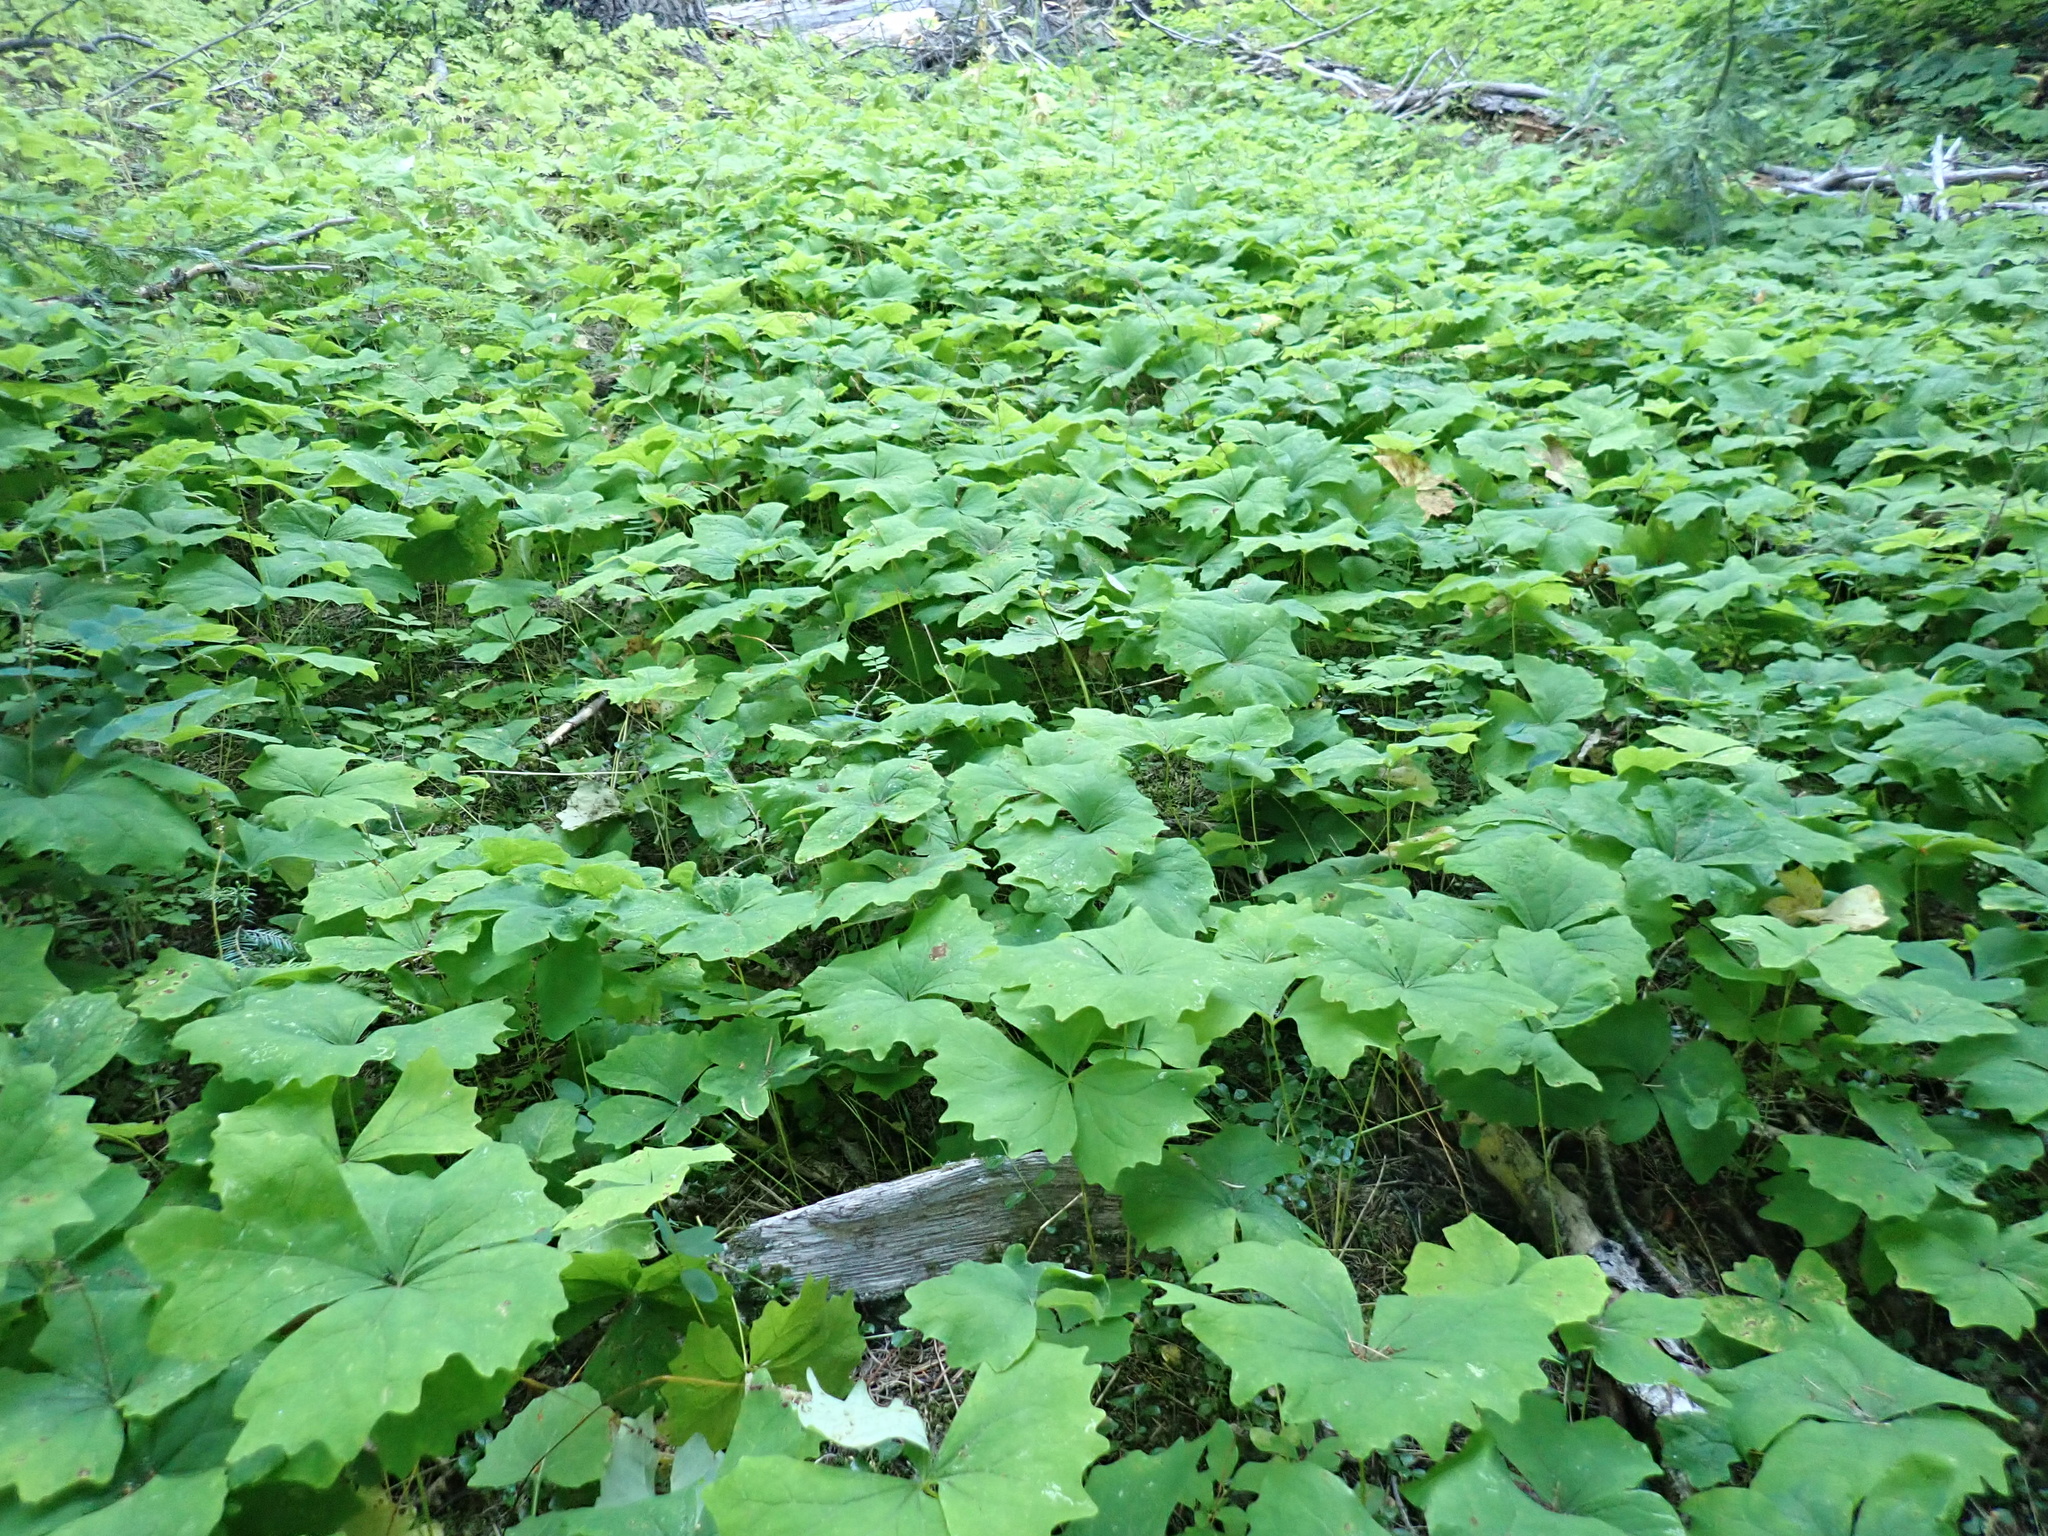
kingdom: Plantae
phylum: Tracheophyta
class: Magnoliopsida
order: Ranunculales
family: Berberidaceae
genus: Achlys
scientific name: Achlys triphylla
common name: Vanilla-leaf
